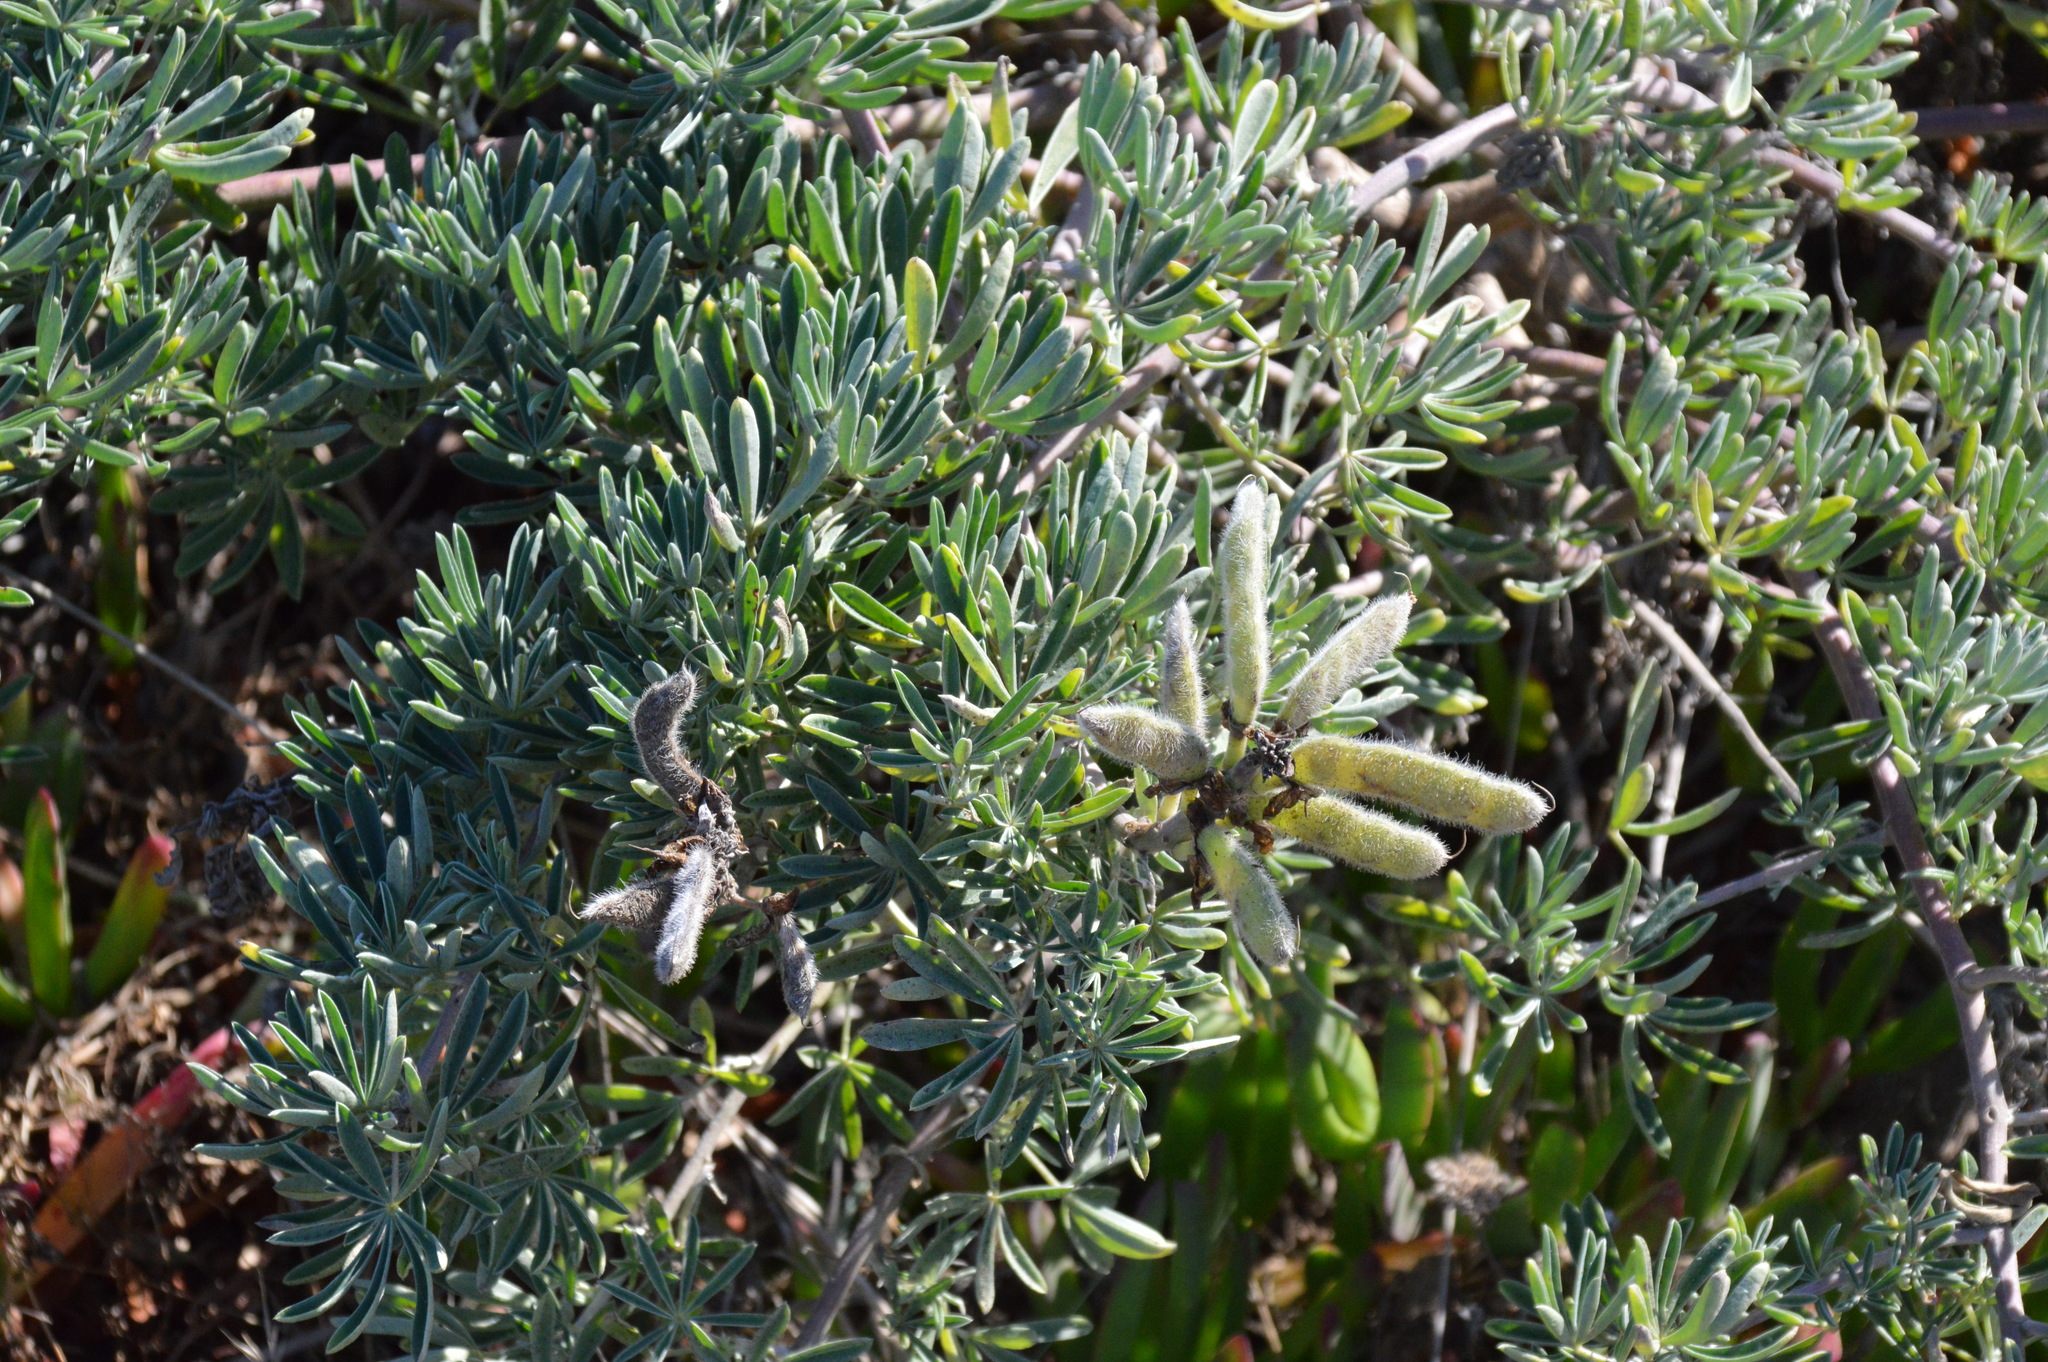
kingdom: Plantae
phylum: Tracheophyta
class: Magnoliopsida
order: Fabales
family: Fabaceae
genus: Lupinus
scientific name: Lupinus arboreus
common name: Yellow bush lupine
